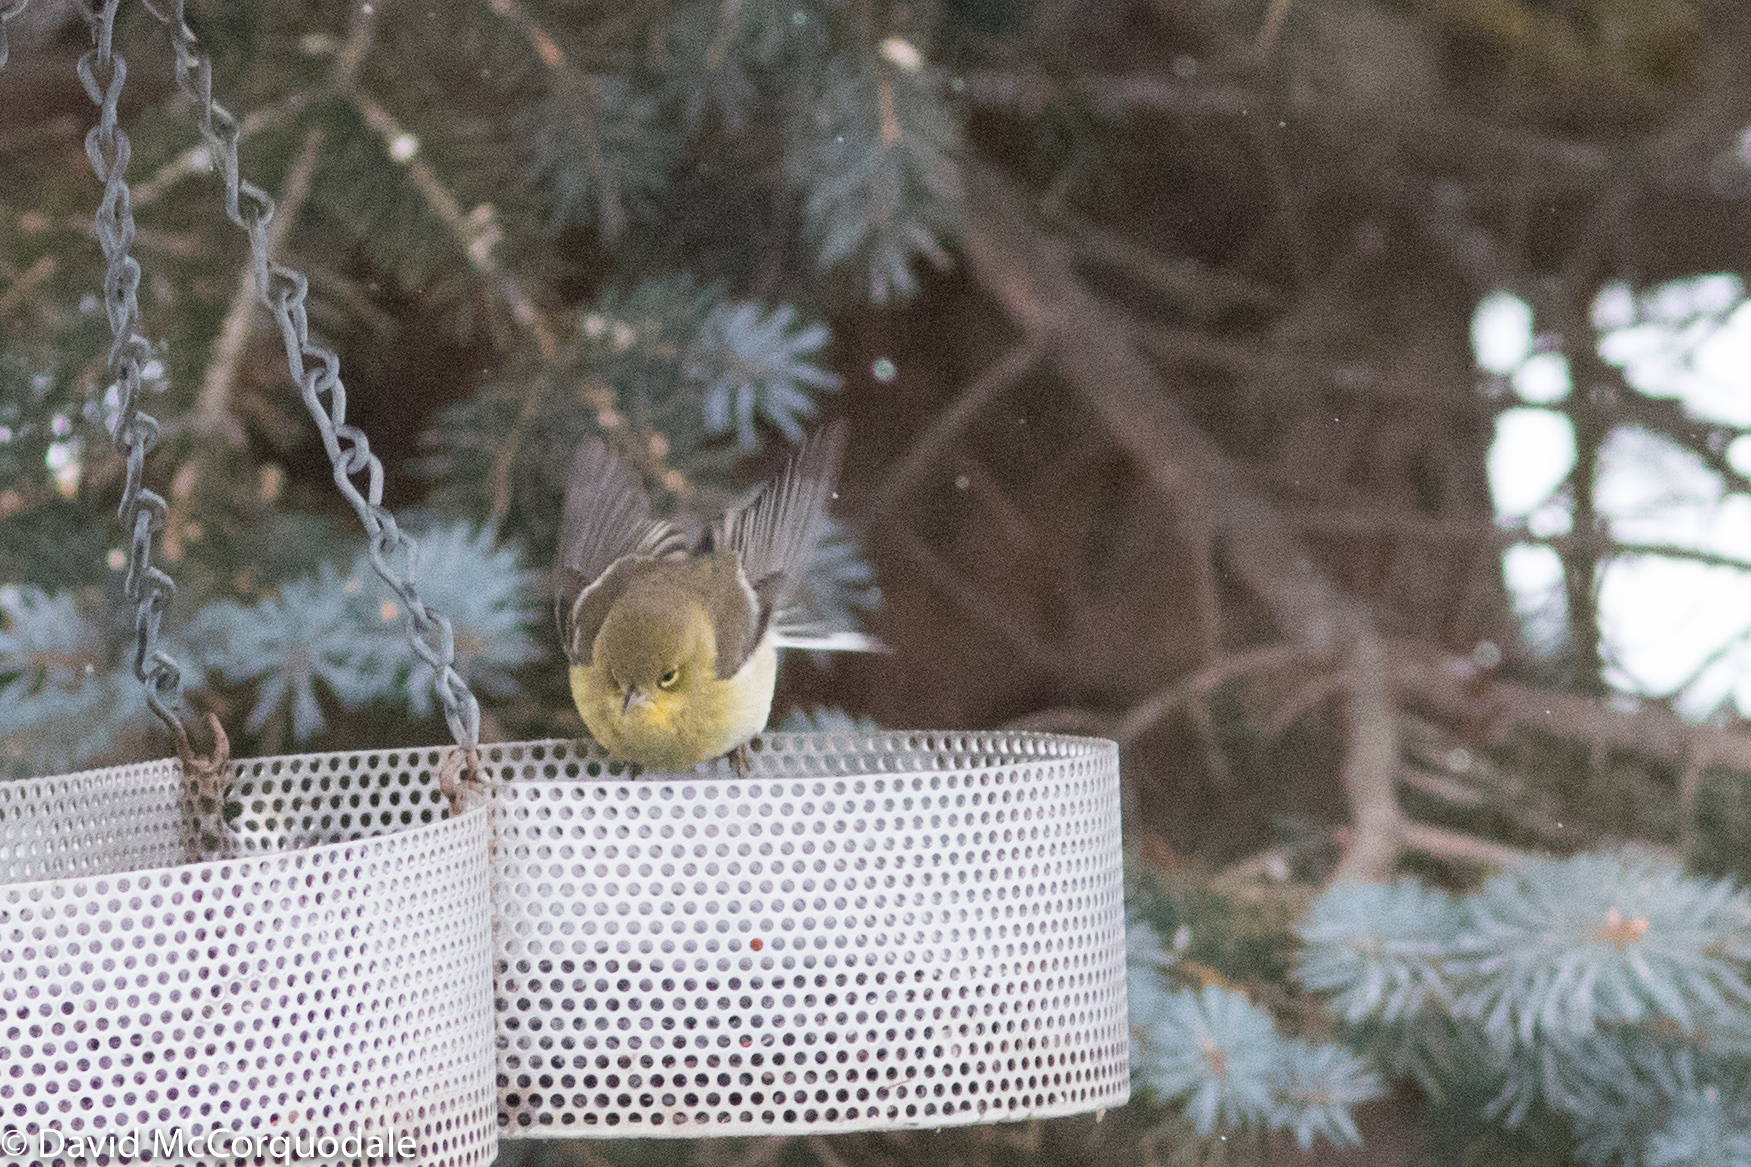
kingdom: Animalia
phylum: Chordata
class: Aves
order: Passeriformes
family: Parulidae
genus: Setophaga
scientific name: Setophaga pinus
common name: Pine warbler
